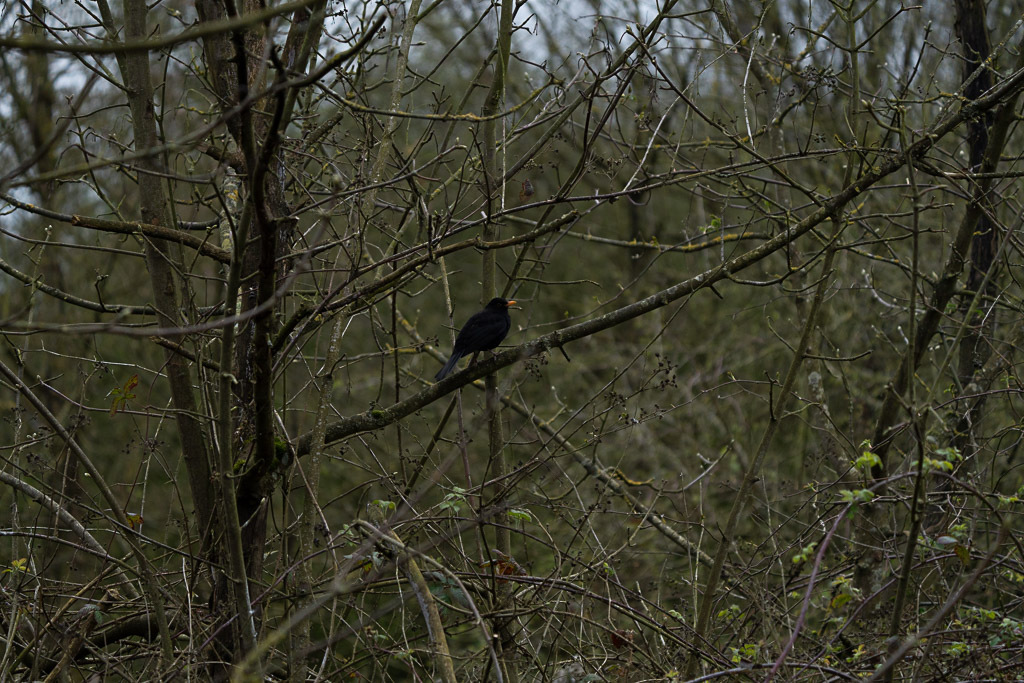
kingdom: Animalia
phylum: Chordata
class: Aves
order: Passeriformes
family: Turdidae
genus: Turdus
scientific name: Turdus merula
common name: Common blackbird
